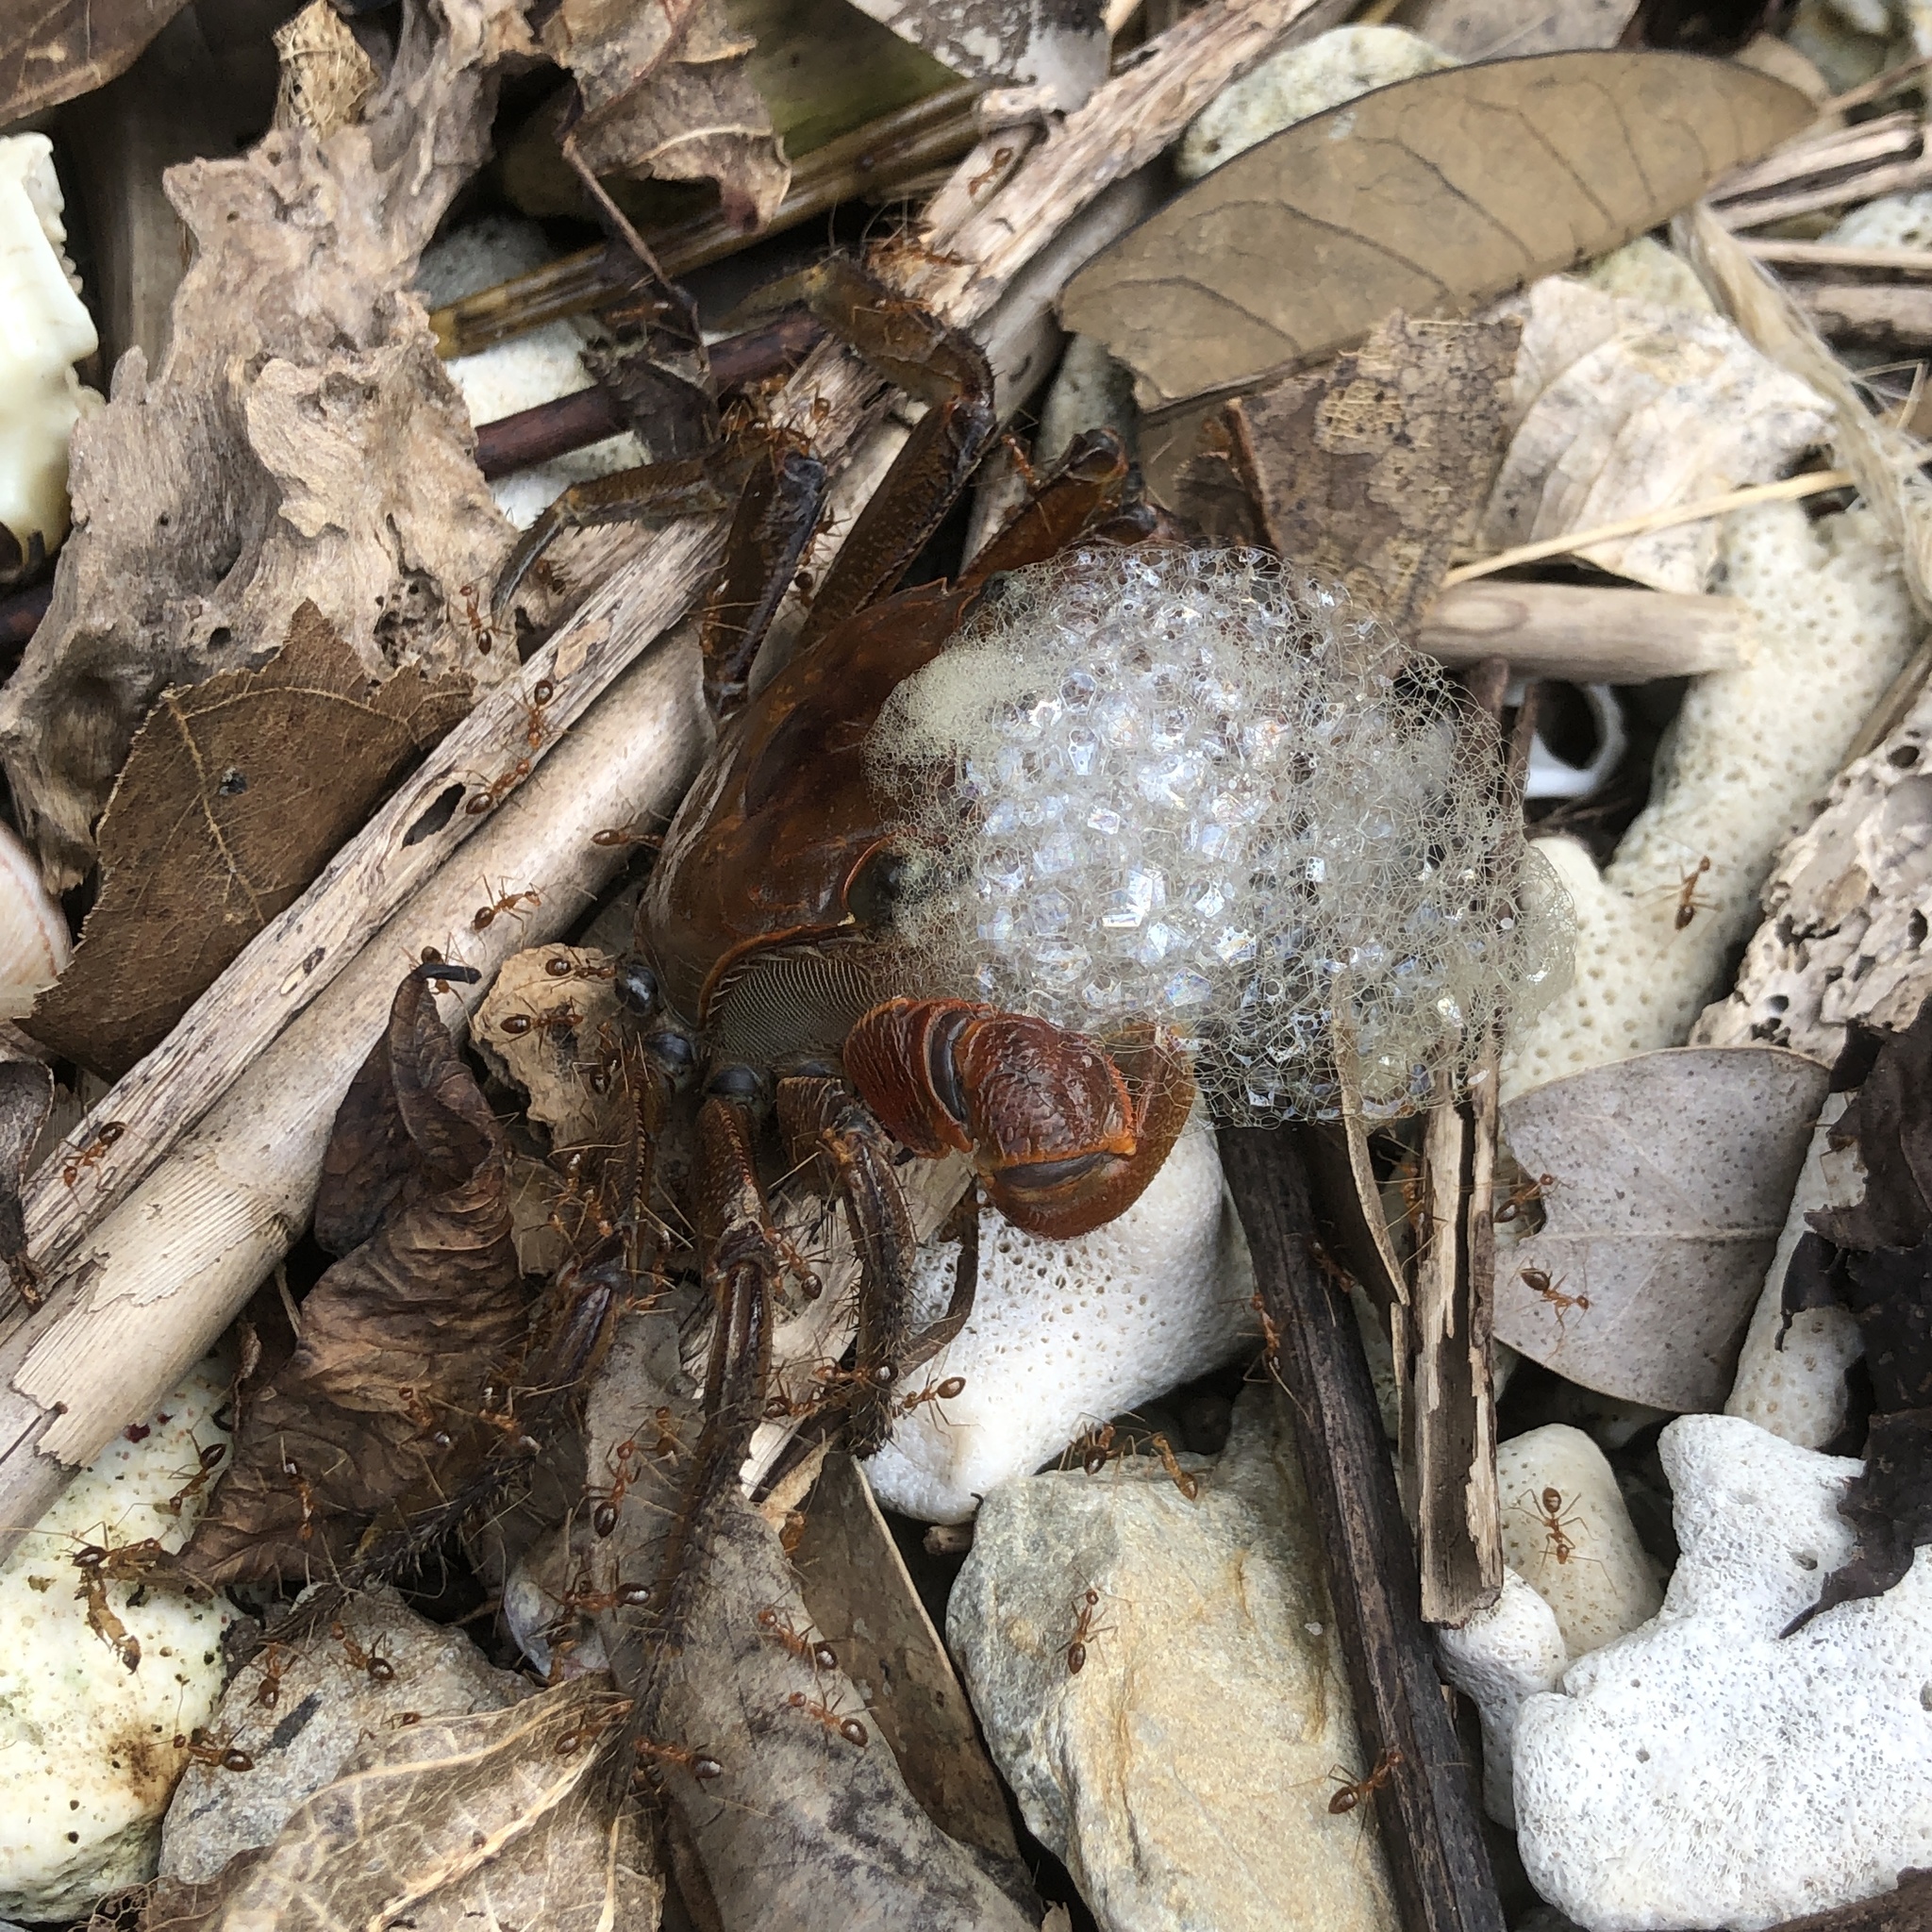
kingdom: Animalia
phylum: Arthropoda
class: Insecta
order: Hymenoptera
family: Formicidae
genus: Anoplolepis
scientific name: Anoplolepis gracilipes
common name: Ant
